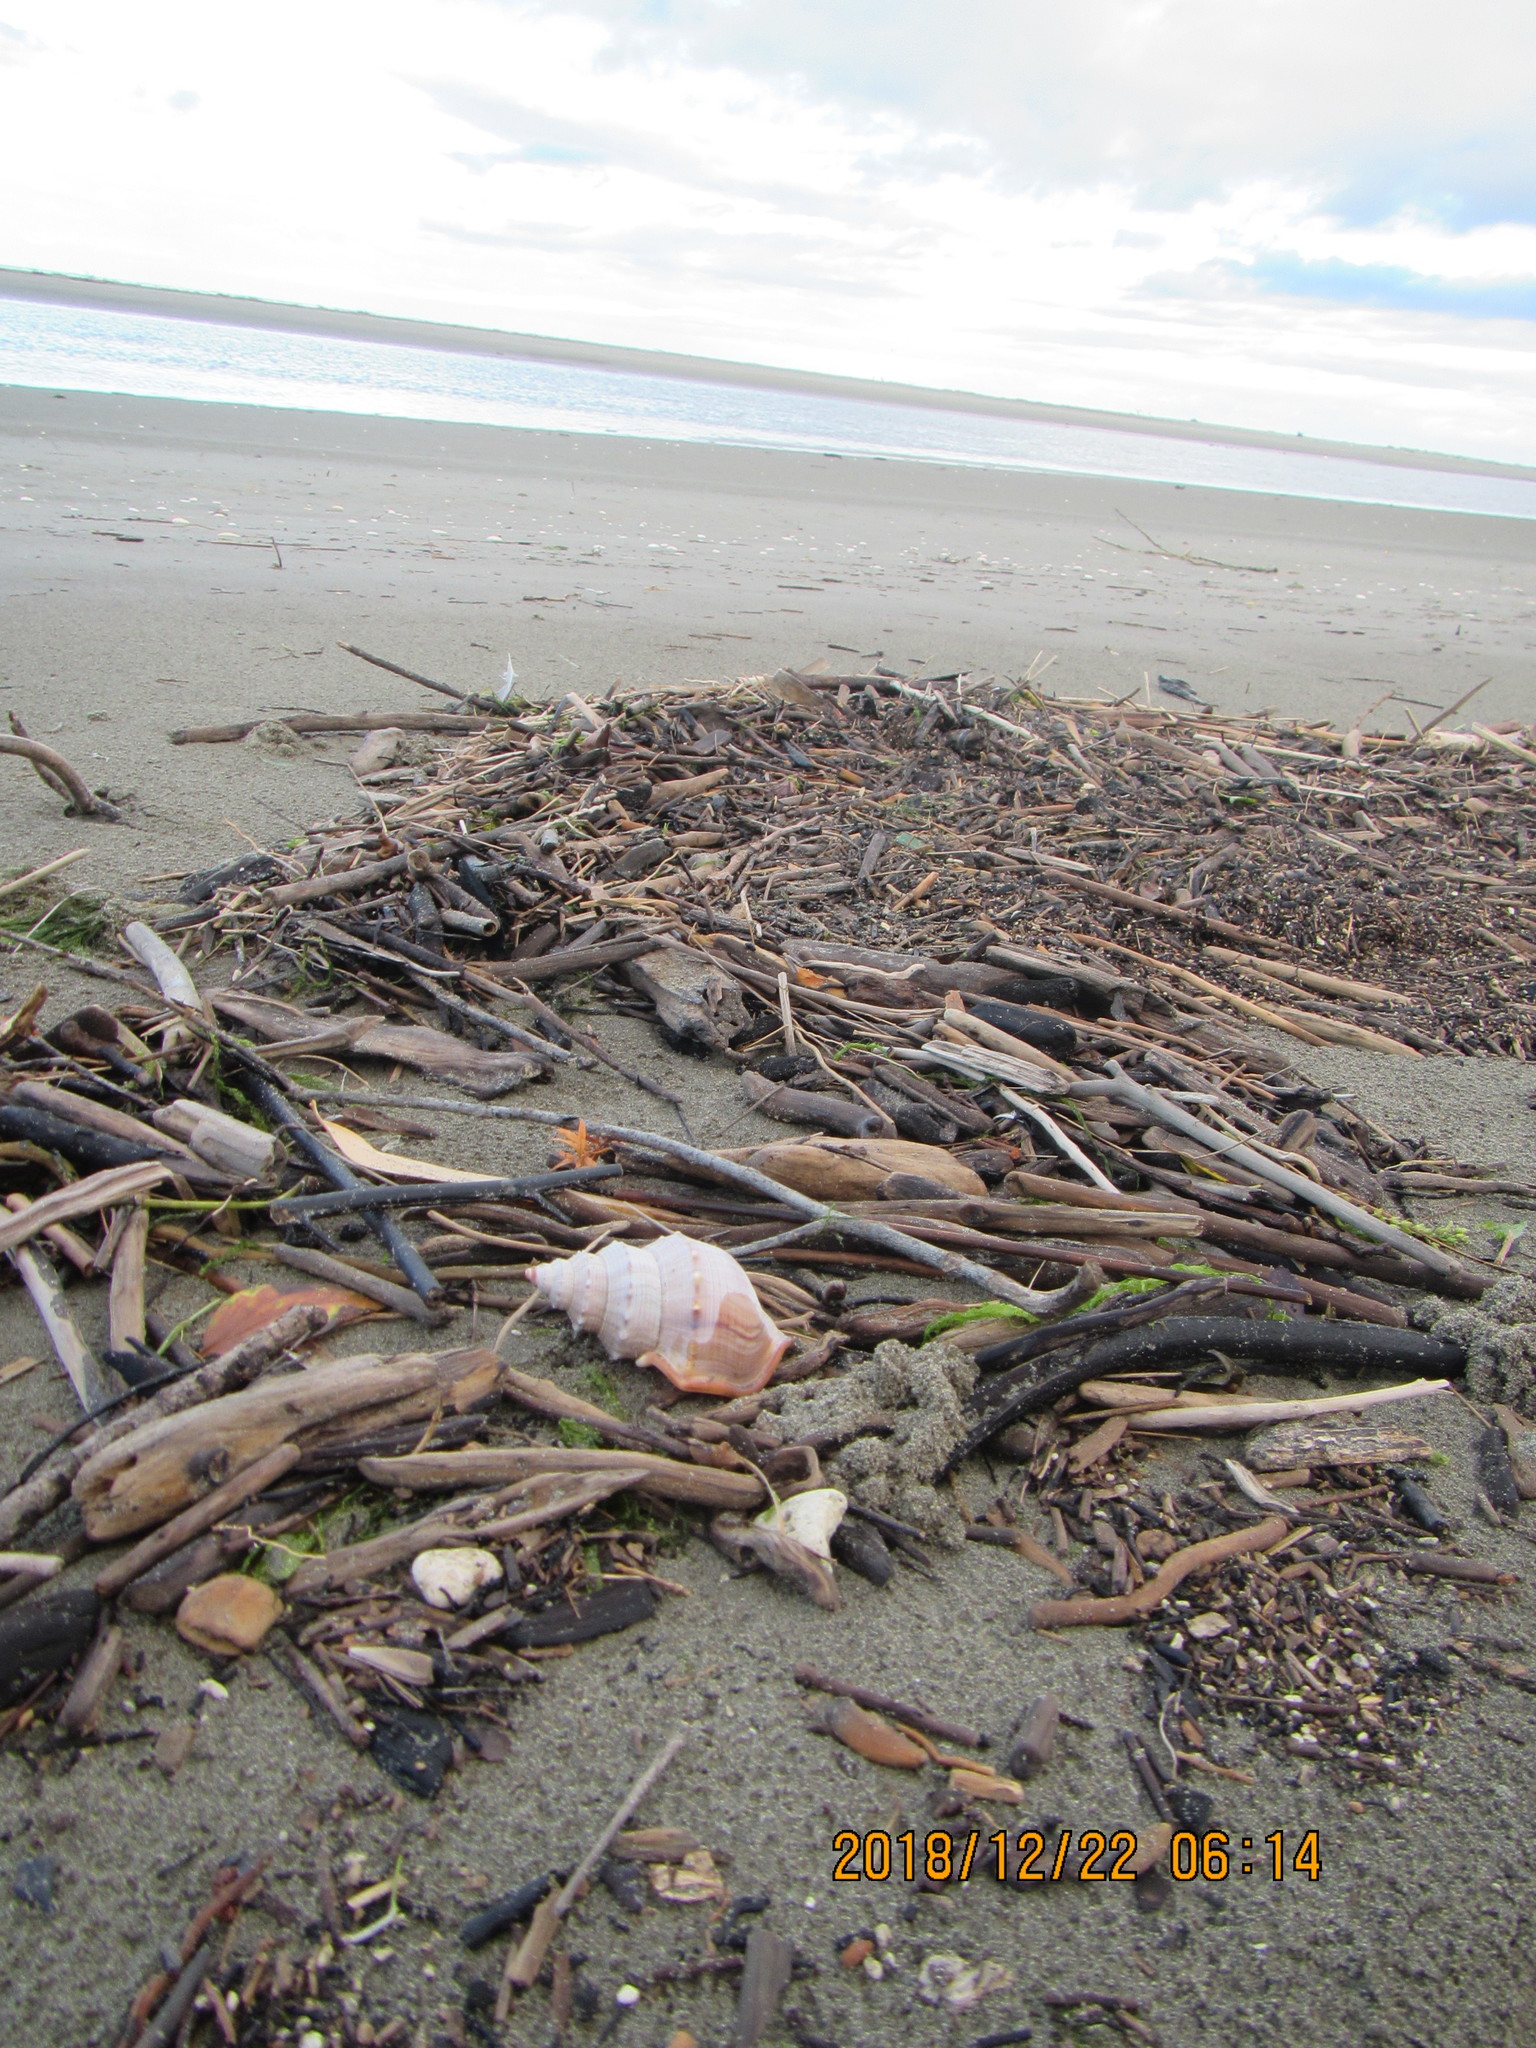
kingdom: Animalia
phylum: Mollusca
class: Gastropoda
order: Littorinimorpha
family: Struthiolariidae
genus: Struthiolaria
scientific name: Struthiolaria papulosa
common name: Large ostrich foot
